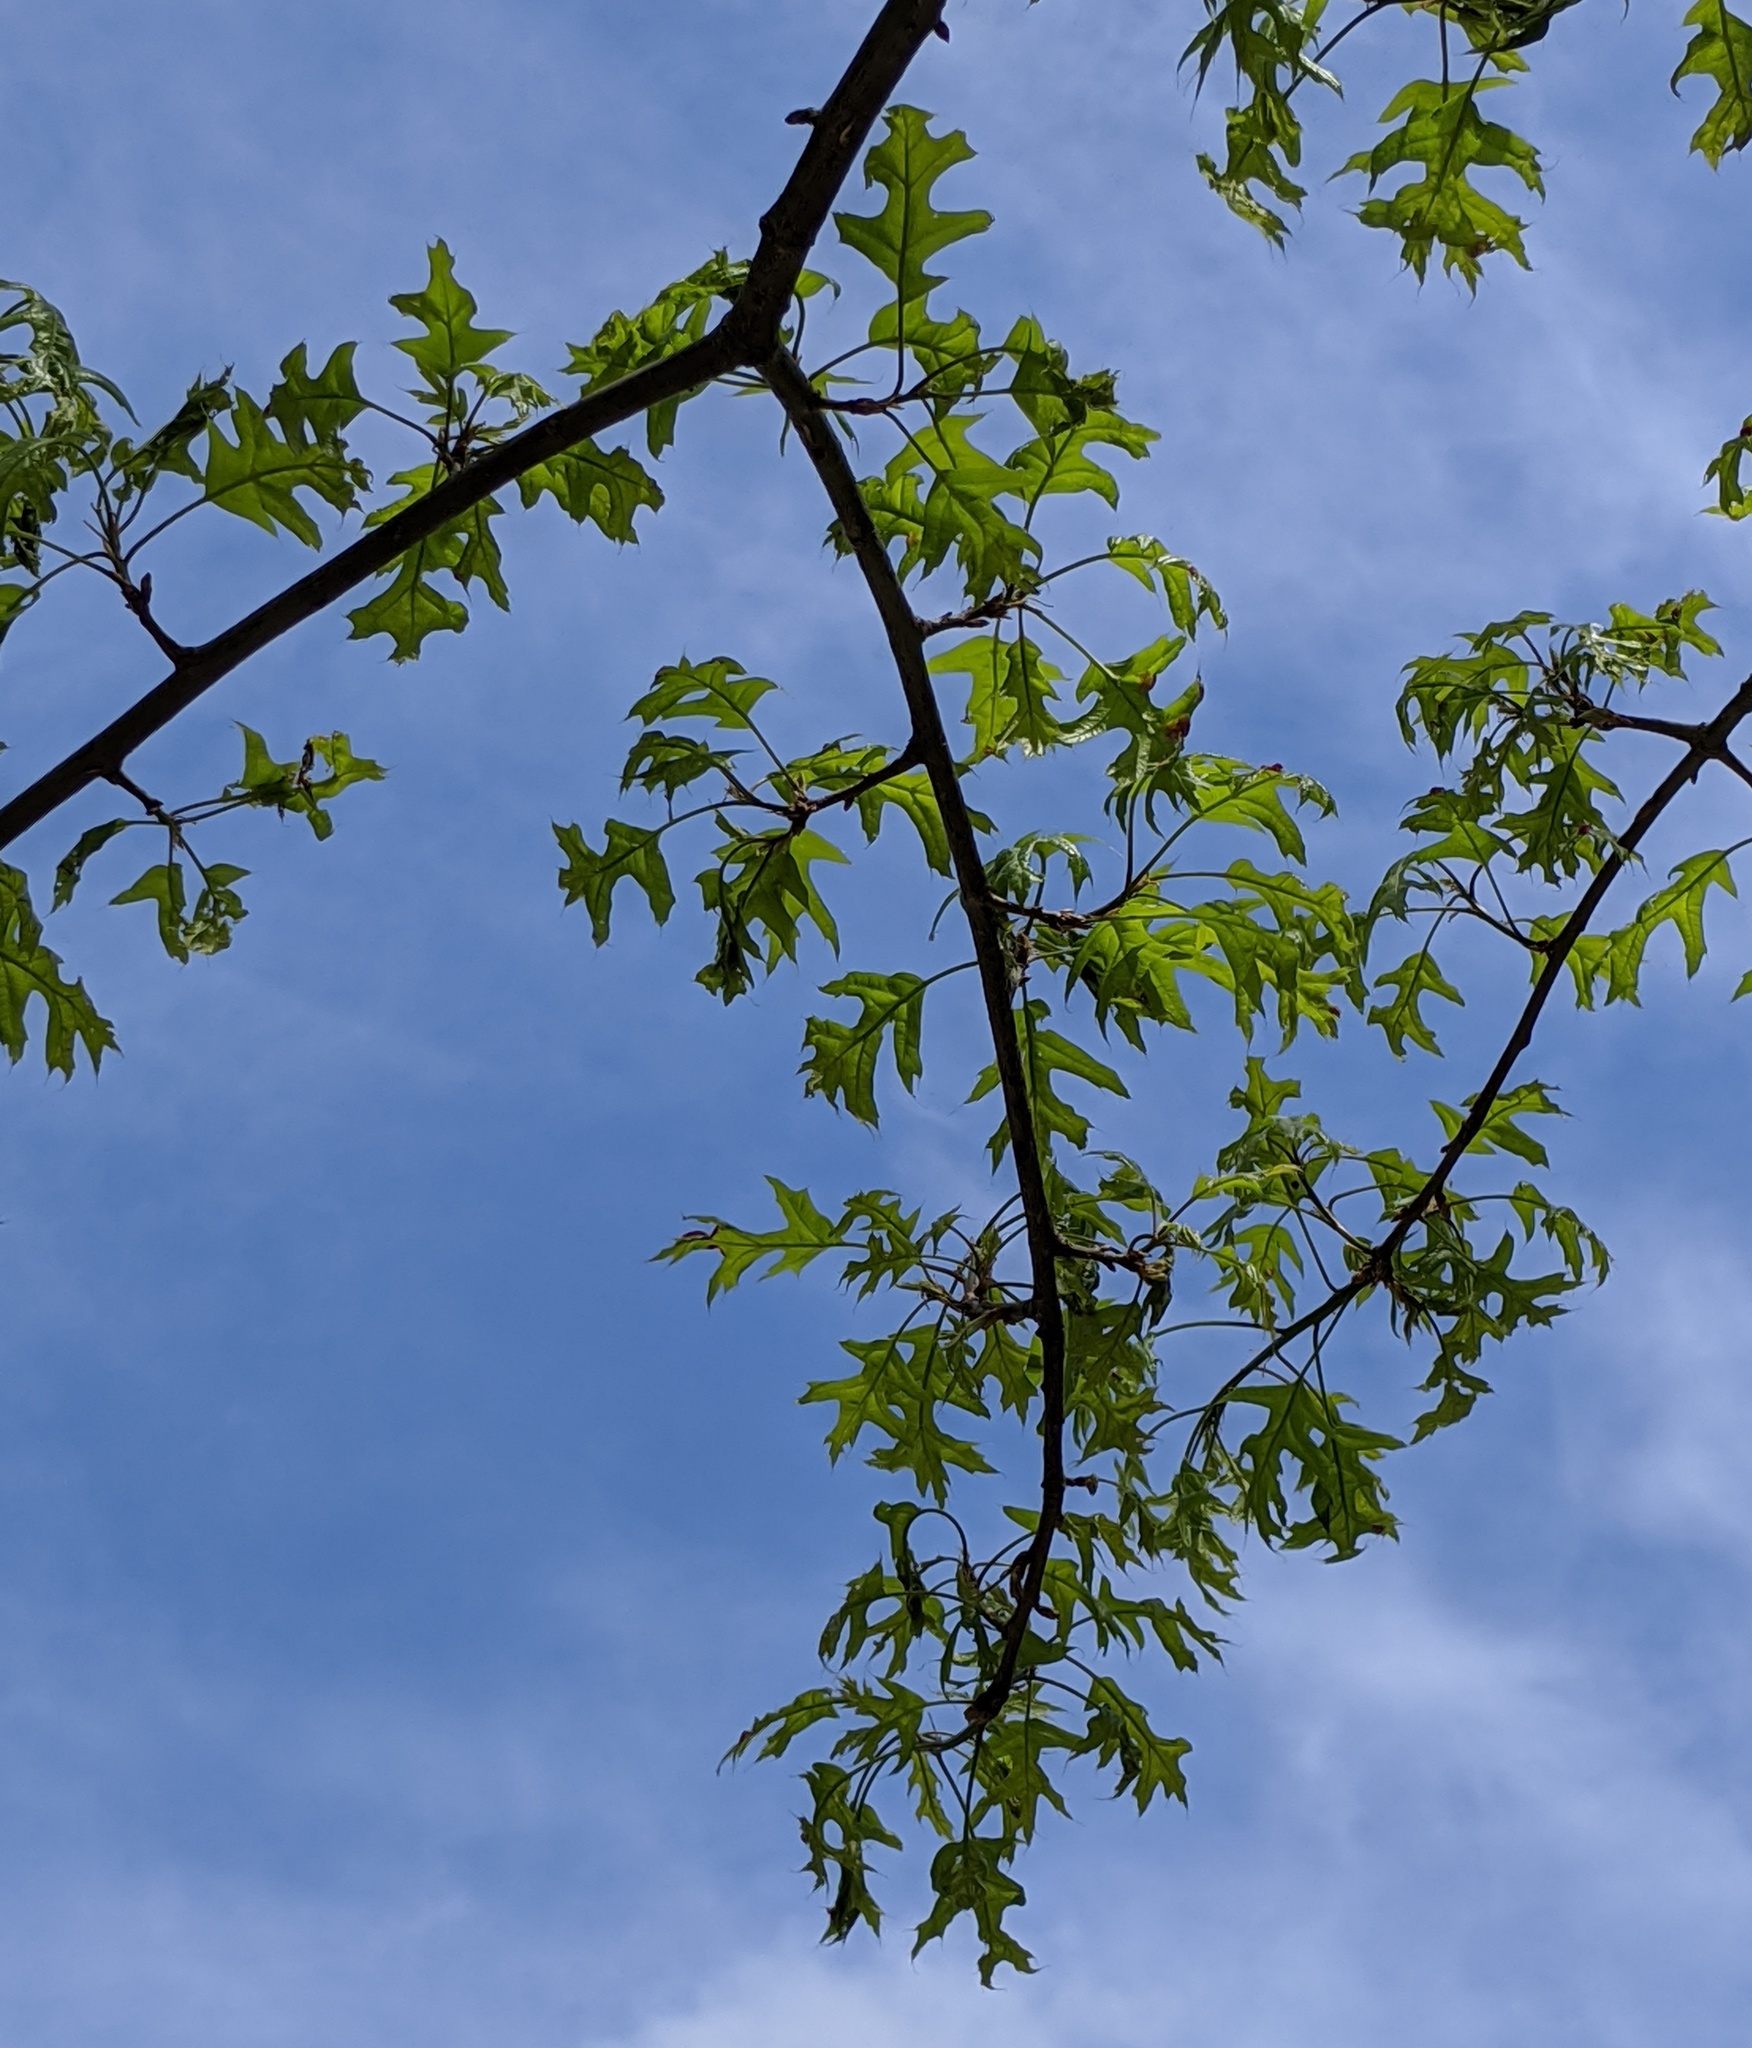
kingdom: Plantae
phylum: Tracheophyta
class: Magnoliopsida
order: Fagales
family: Fagaceae
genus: Quercus
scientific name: Quercus palustris
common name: Pin oak
